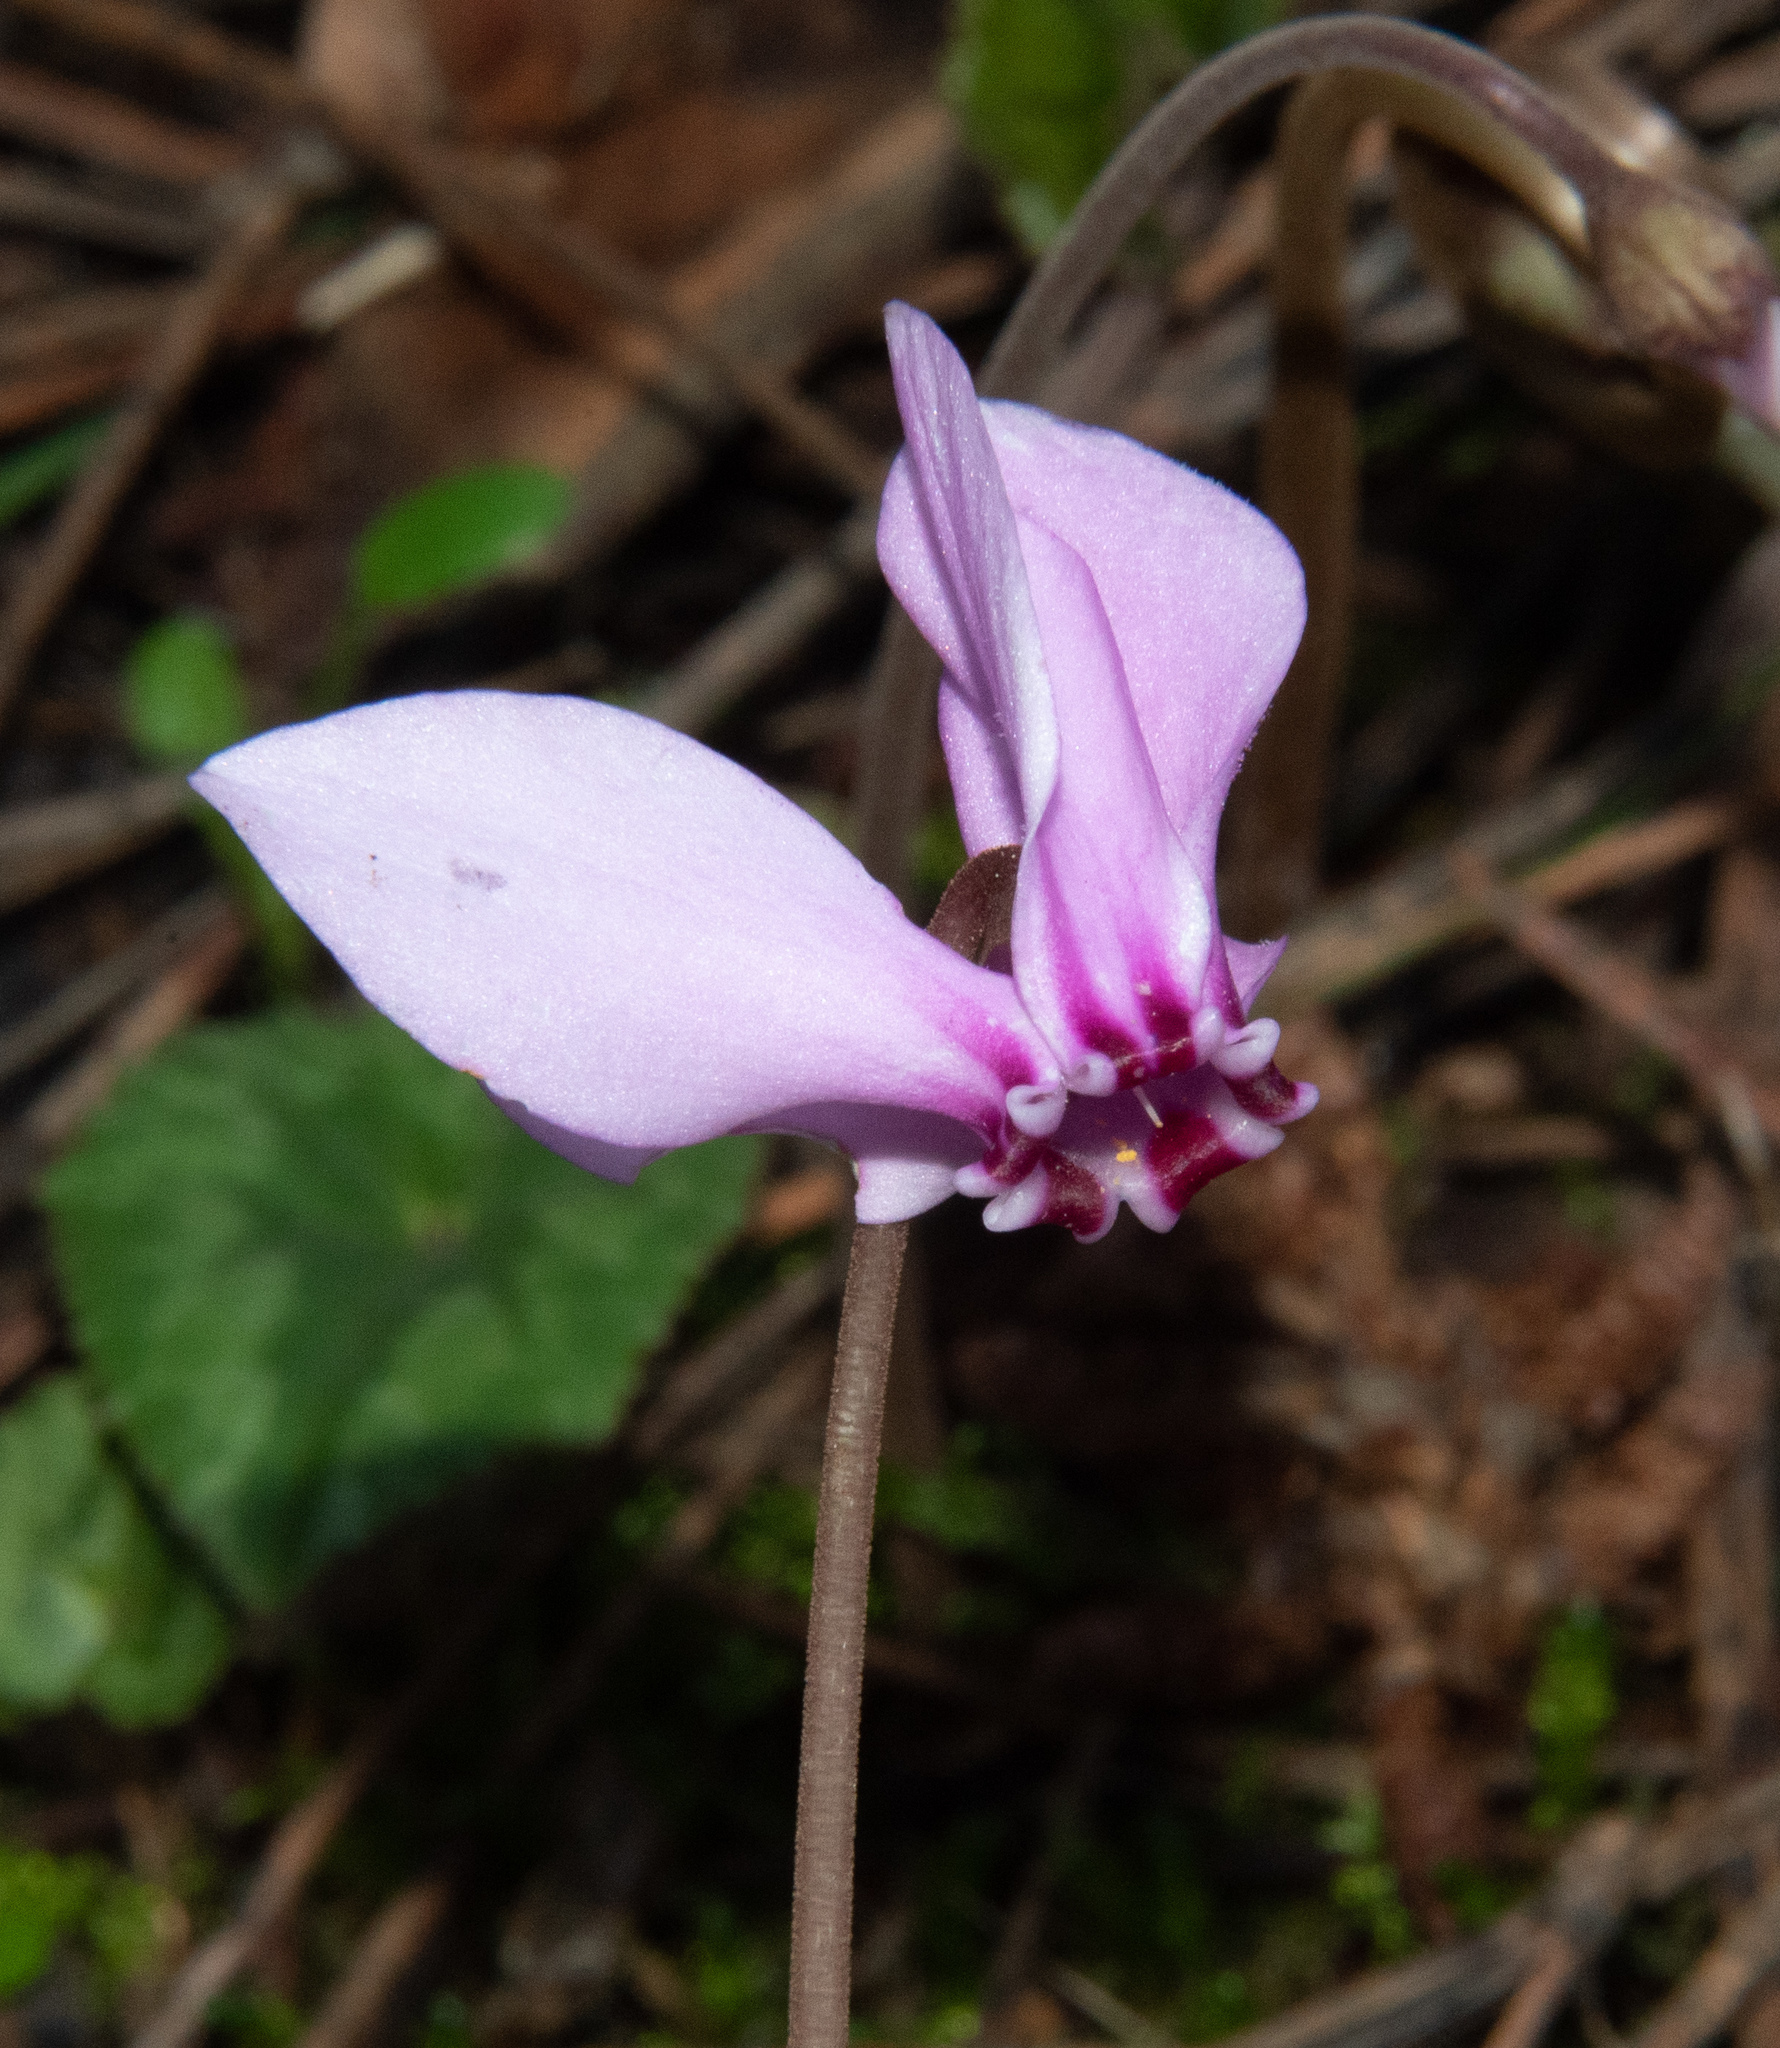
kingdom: Plantae
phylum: Tracheophyta
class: Magnoliopsida
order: Ericales
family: Primulaceae
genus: Cyclamen
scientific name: Cyclamen hederifolium
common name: Sowbread
